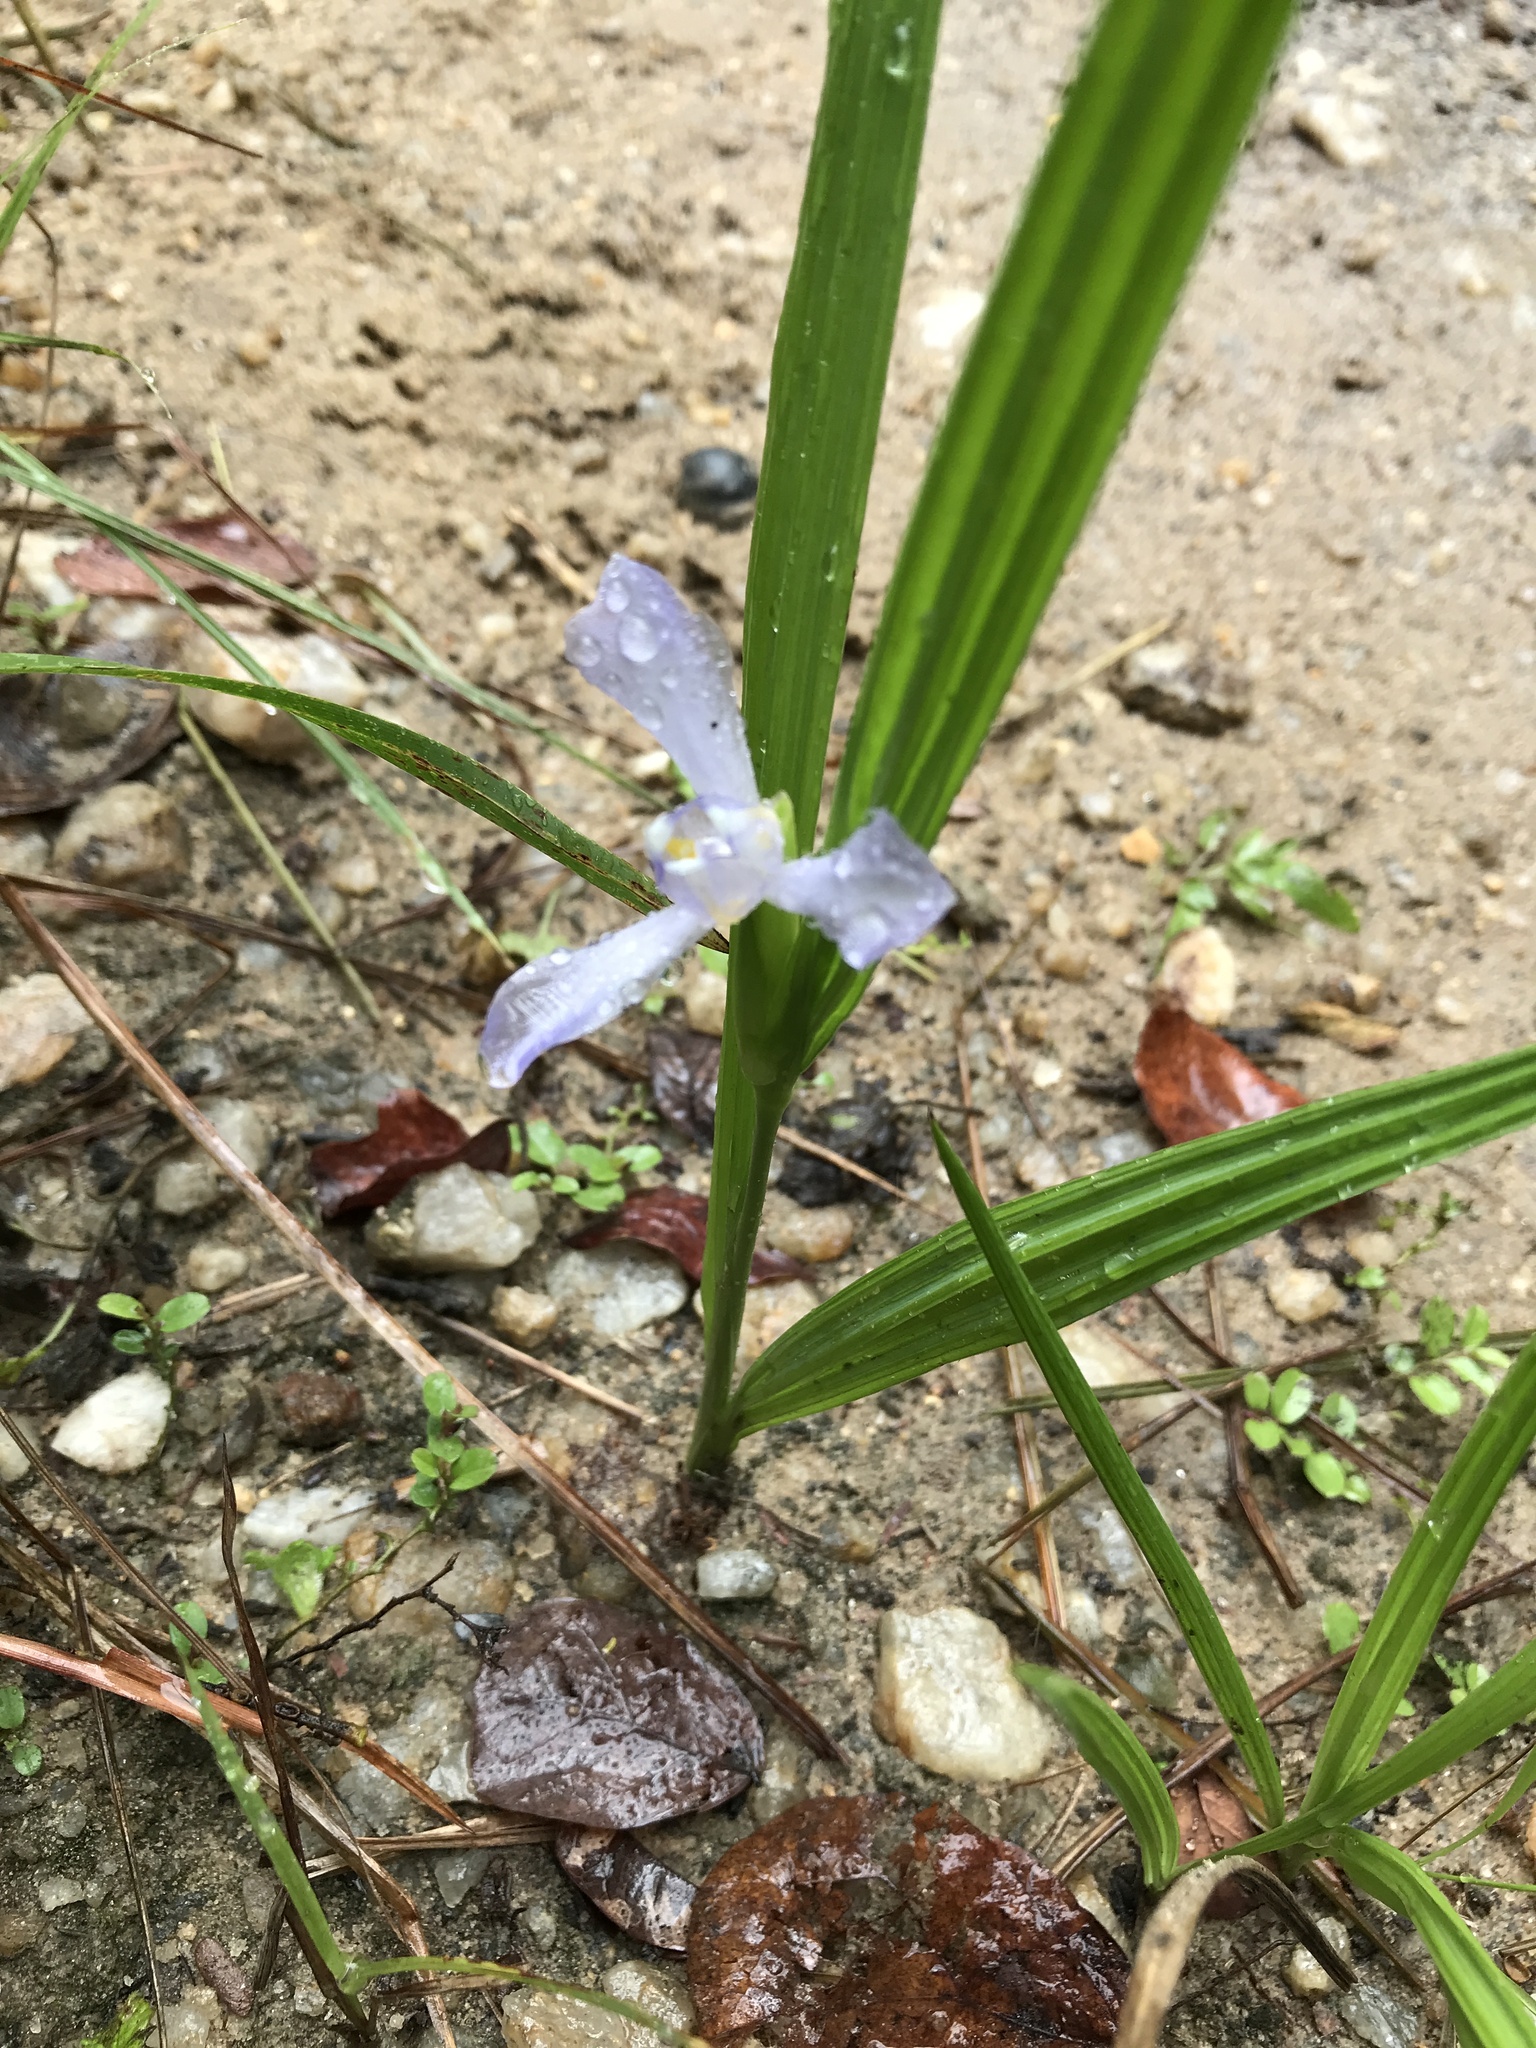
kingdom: Plantae
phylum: Tracheophyta
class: Liliopsida
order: Asparagales
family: Iridaceae
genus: Cipura
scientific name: Cipura paludosa
